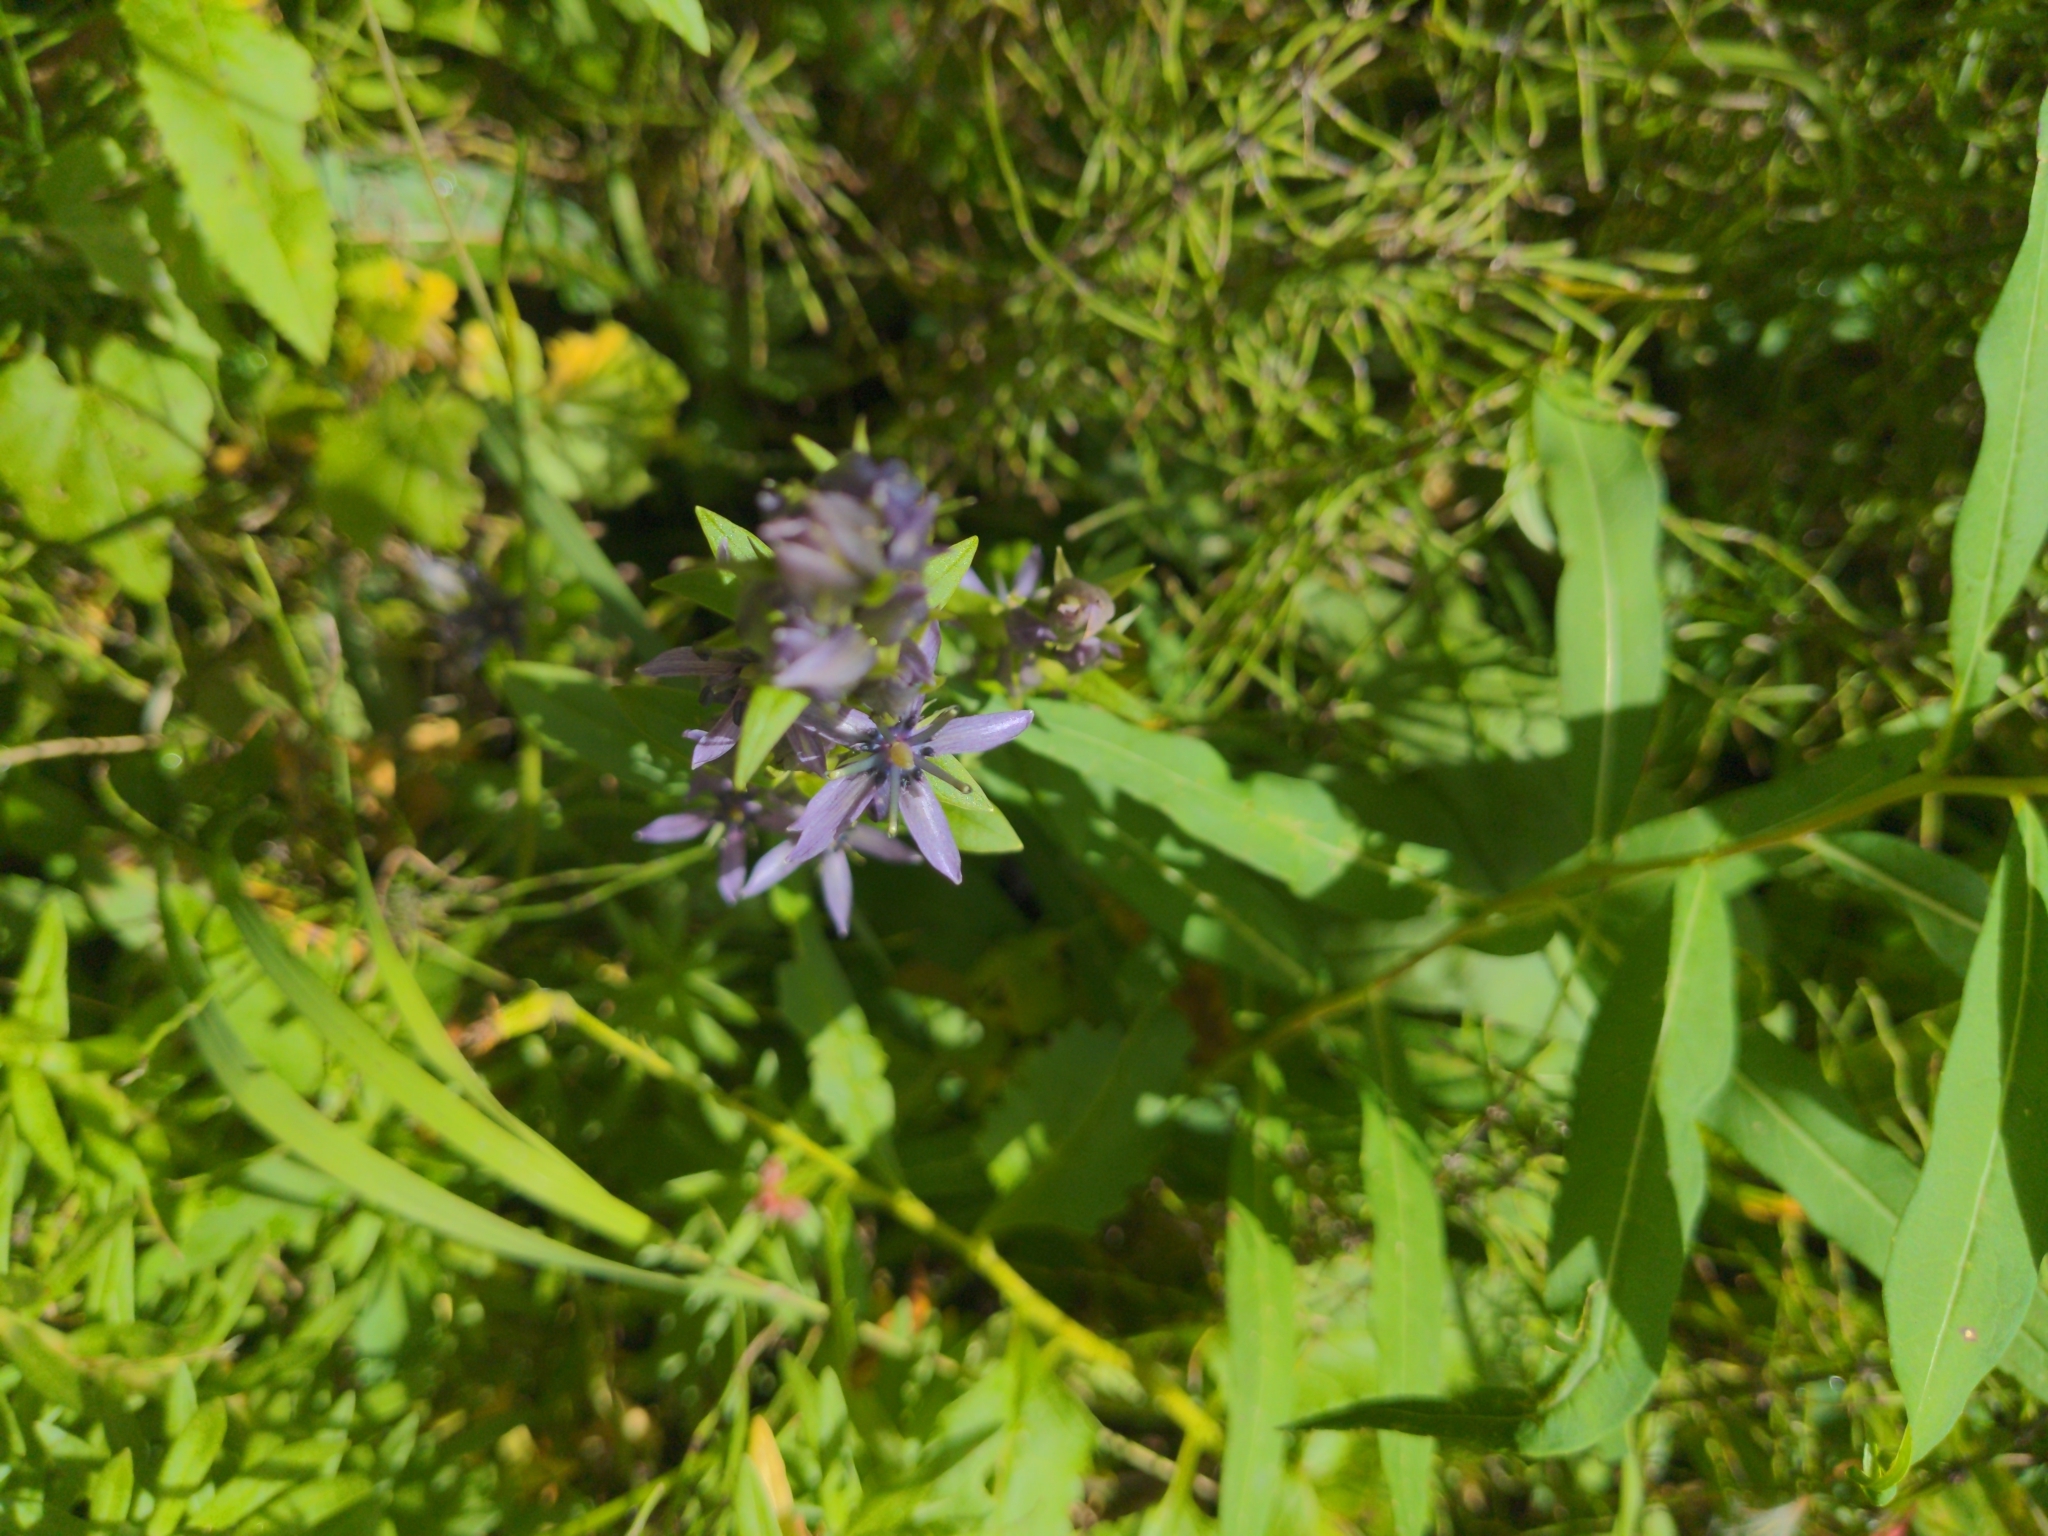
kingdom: Plantae
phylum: Tracheophyta
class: Magnoliopsida
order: Gentianales
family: Gentianaceae
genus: Swertia
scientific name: Swertia perennis
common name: Alpine bog swertia
